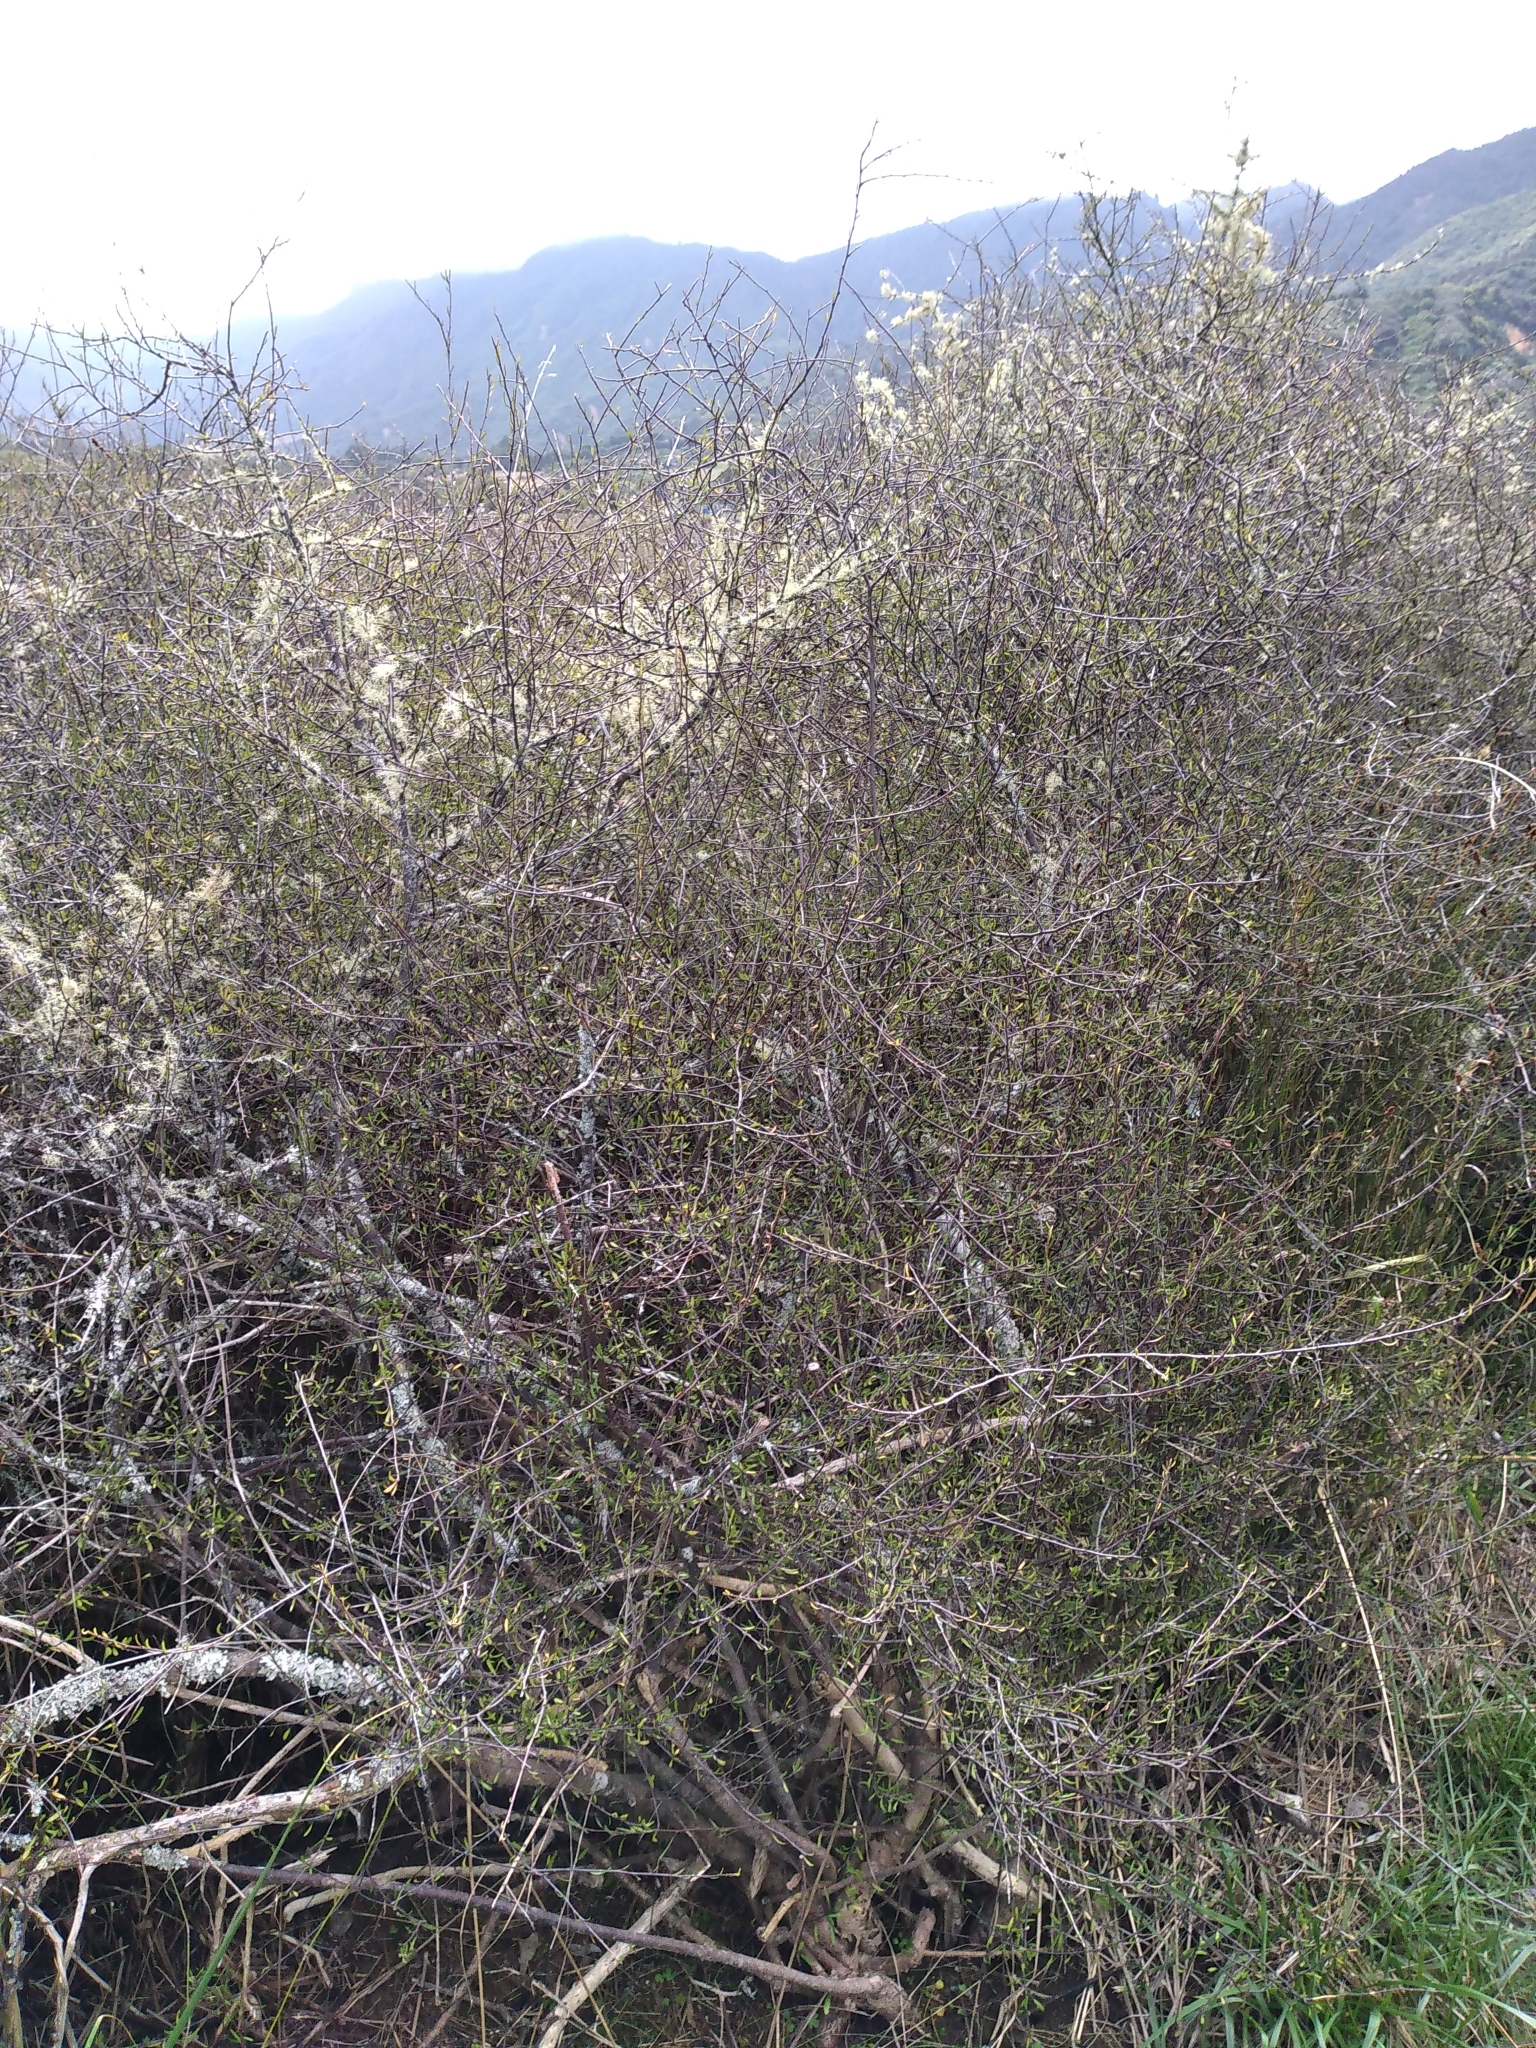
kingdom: Plantae
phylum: Tracheophyta
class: Magnoliopsida
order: Malvales
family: Malvaceae
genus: Plagianthus
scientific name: Plagianthus divaricatus
